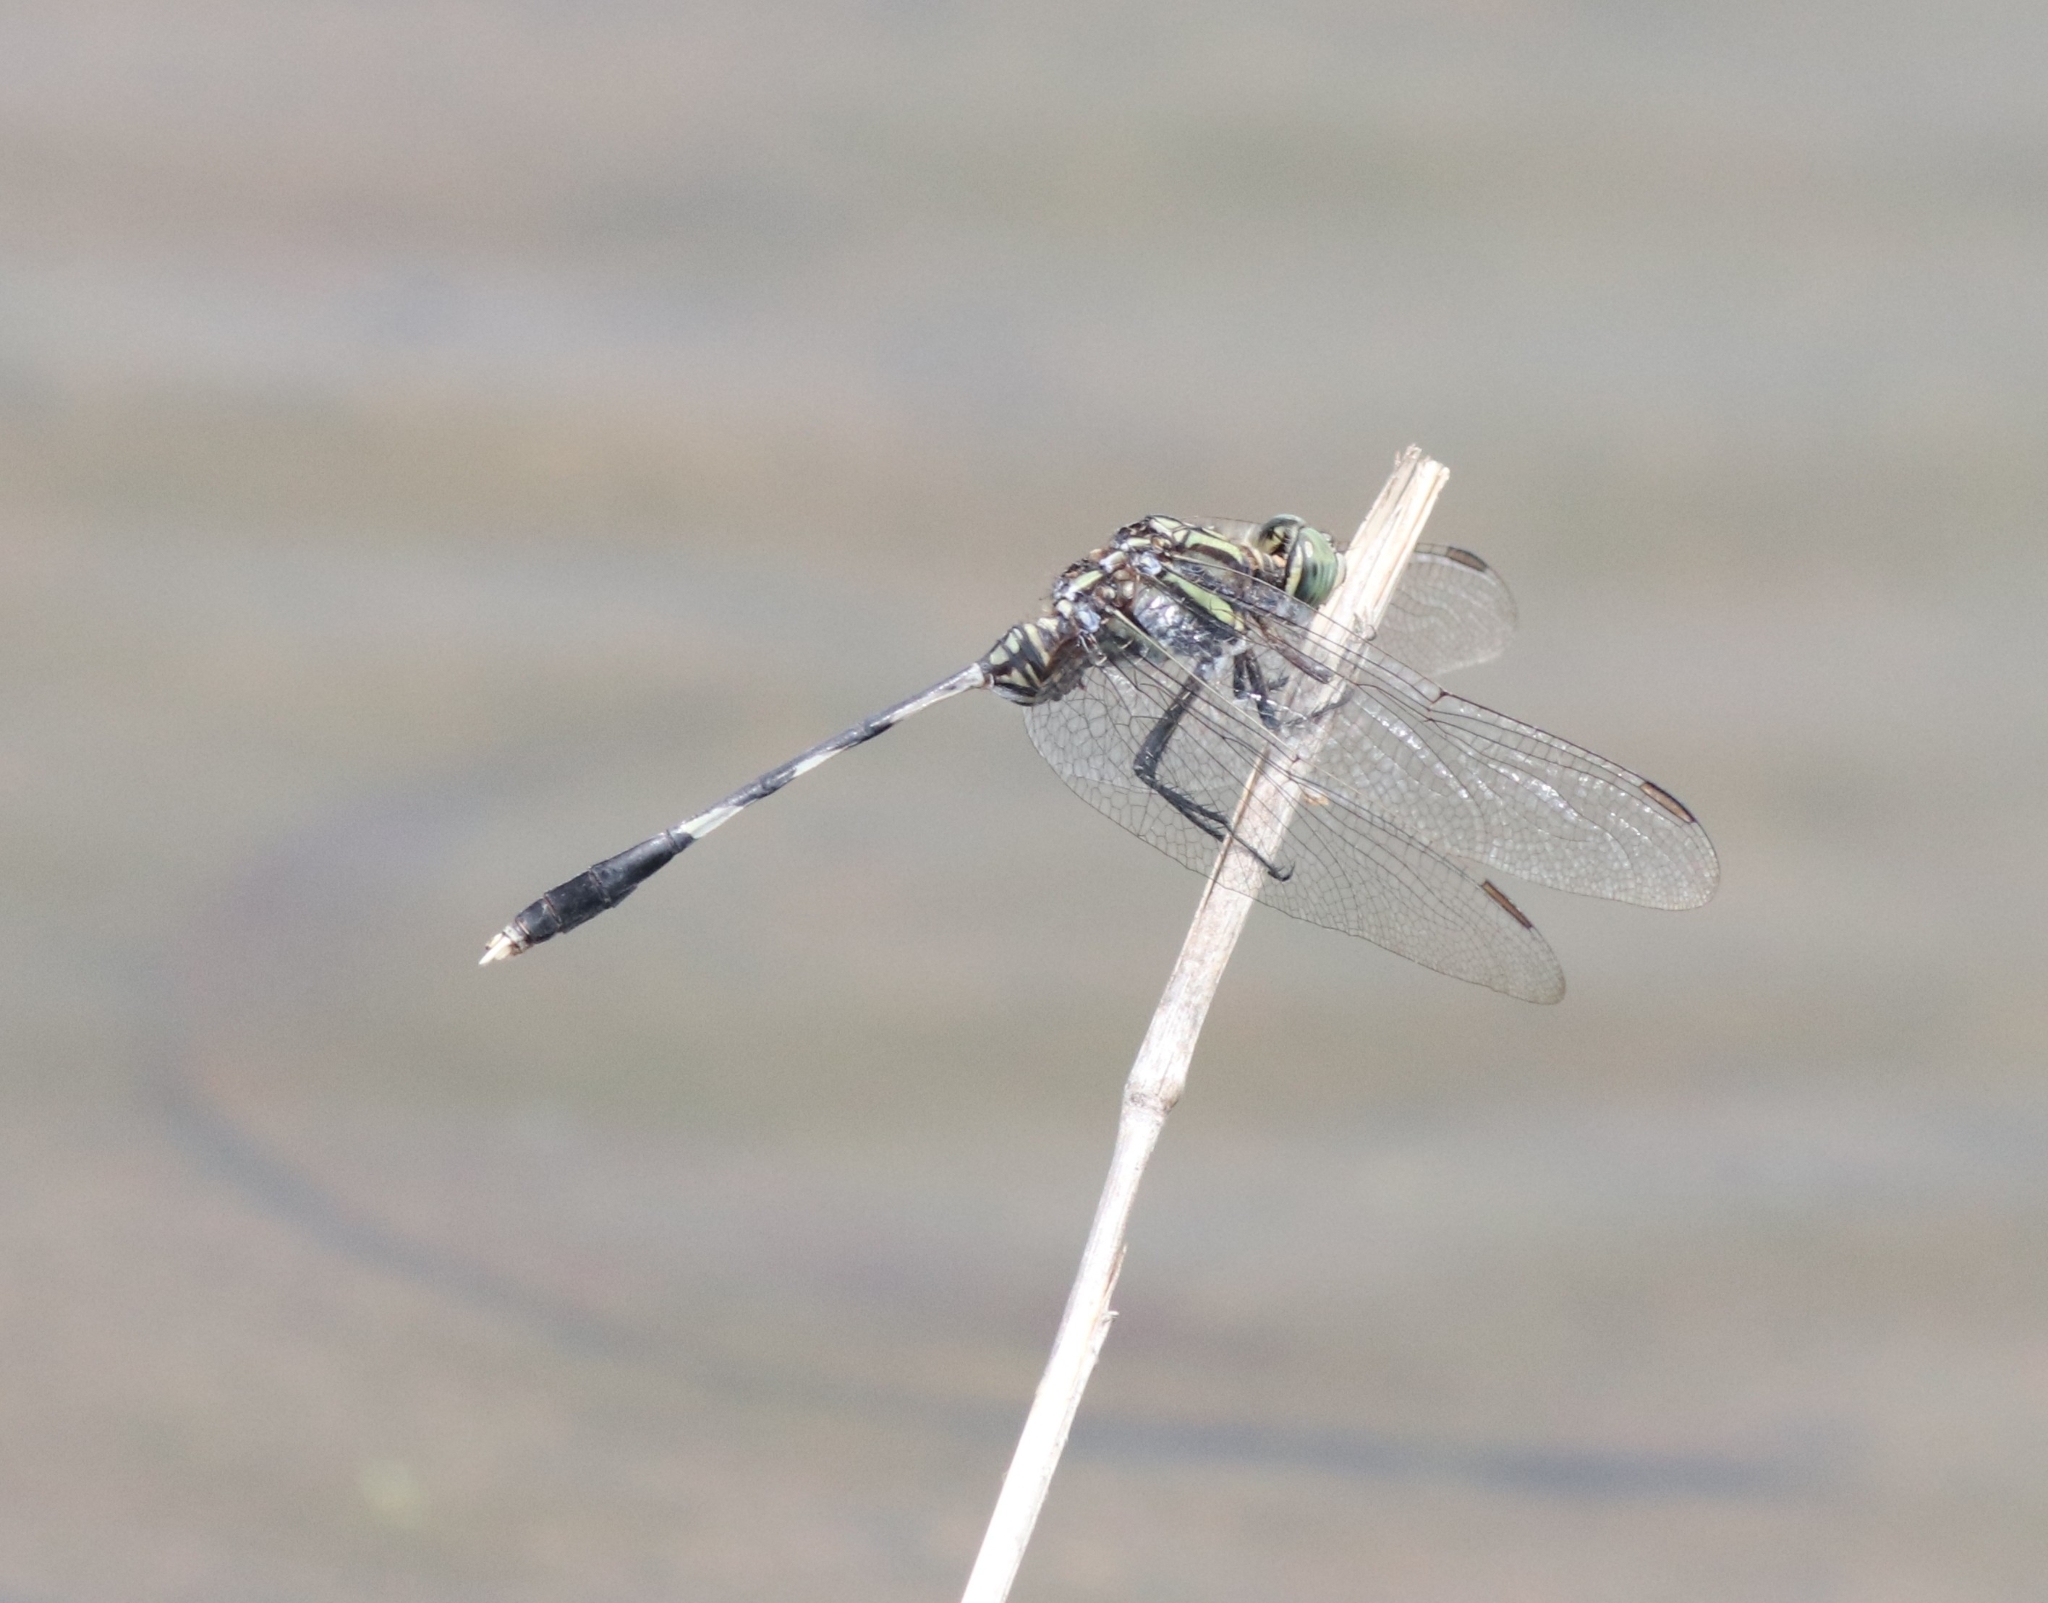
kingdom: Animalia
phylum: Arthropoda
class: Insecta
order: Odonata
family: Libellulidae
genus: Orthetrum
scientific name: Orthetrum sabina
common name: Slender skimmer
